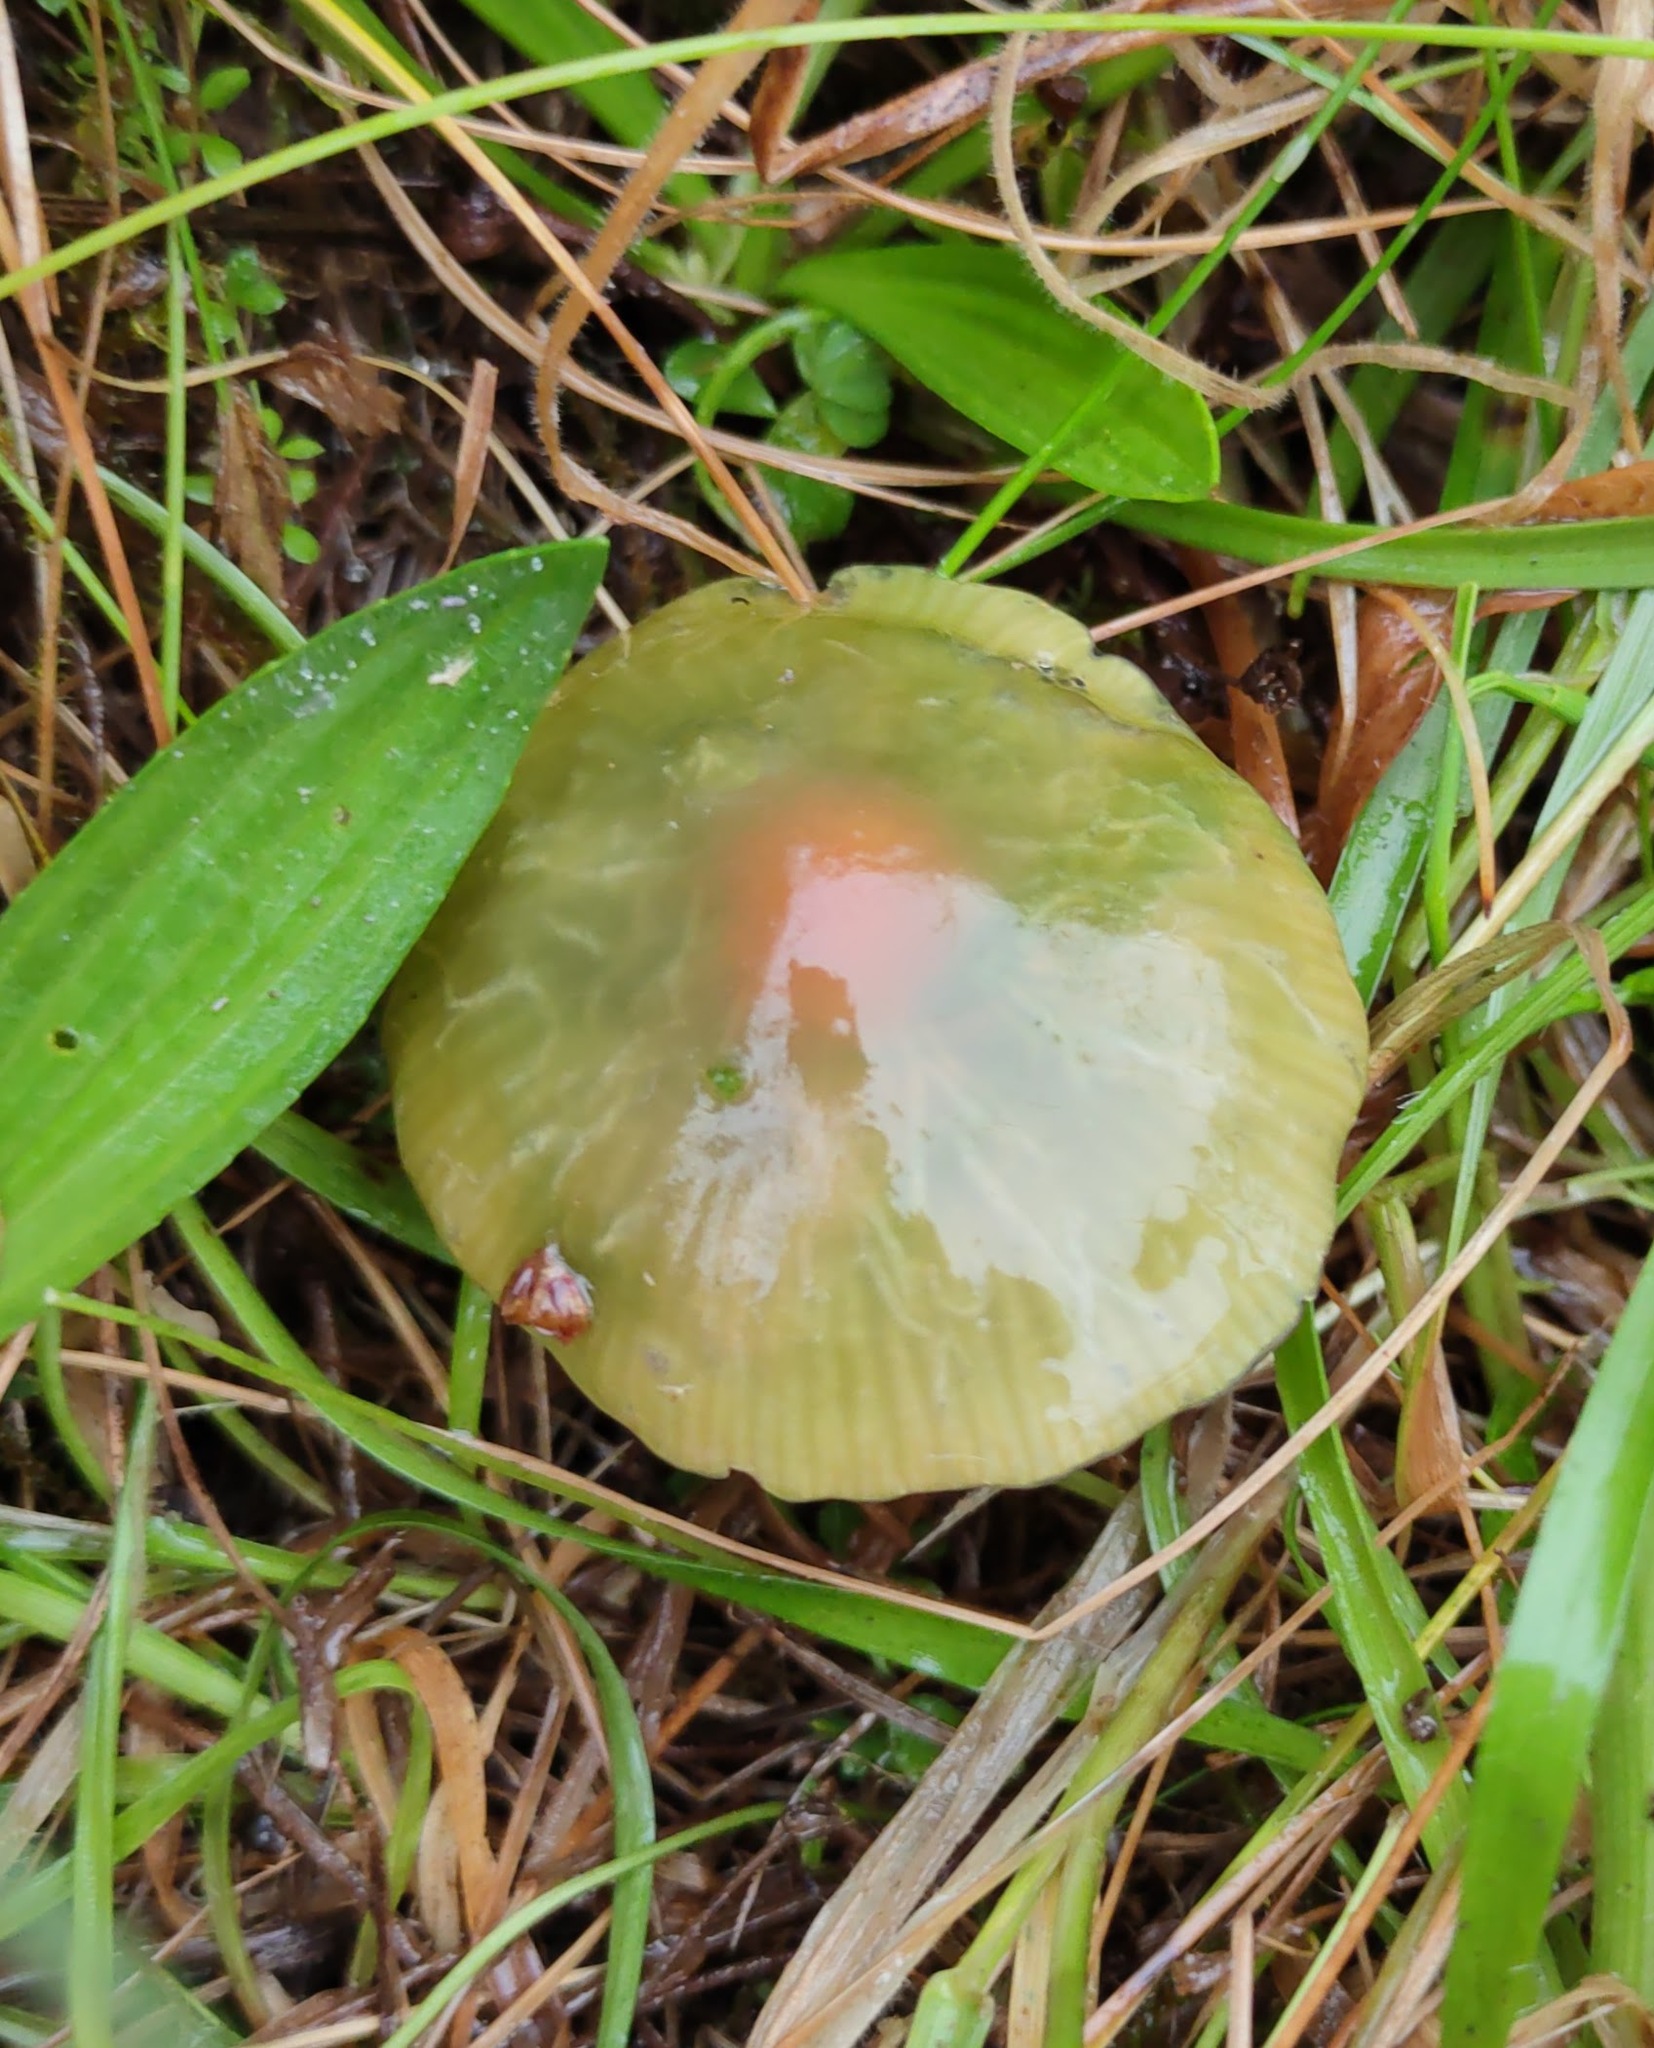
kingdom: Fungi
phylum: Basidiomycota
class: Agaricomycetes
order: Agaricales
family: Hygrophoraceae
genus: Gliophorus
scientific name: Gliophorus psittacinus
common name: Parrot wax-cap
